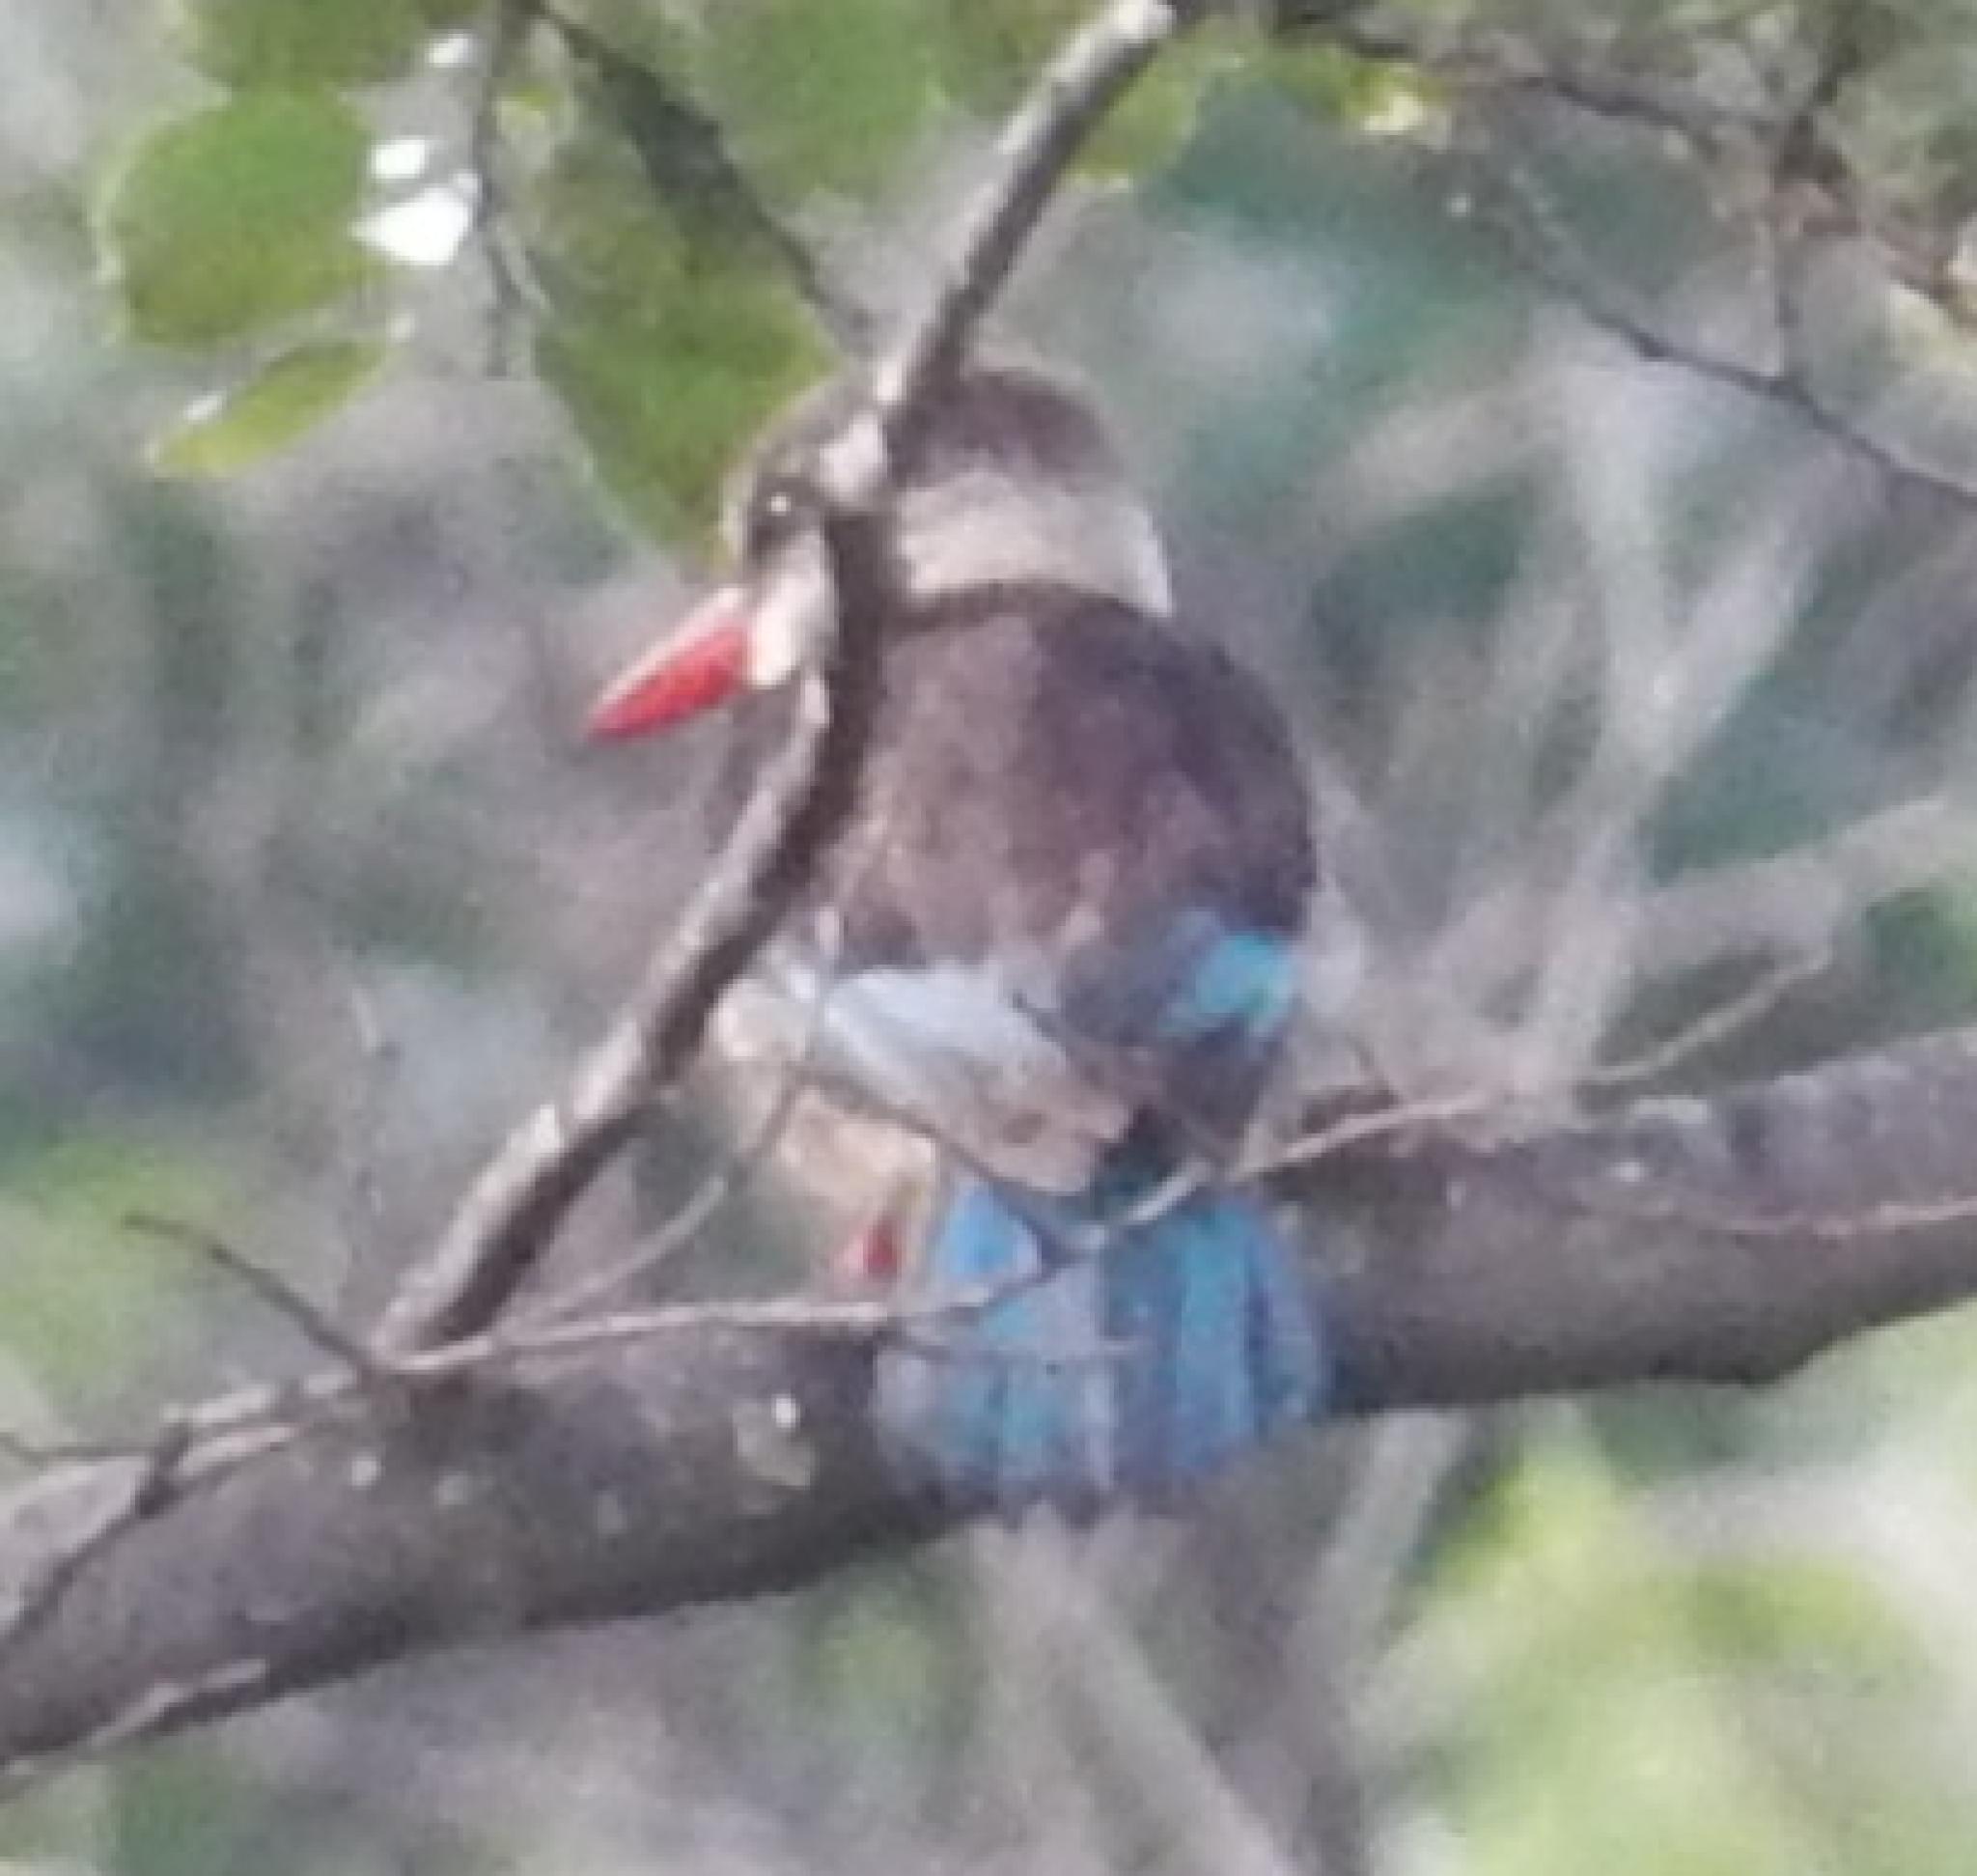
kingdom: Animalia
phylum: Chordata
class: Aves
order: Coraciiformes
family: Alcedinidae
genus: Halcyon
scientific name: Halcyon albiventris
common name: Brown-hooded kingfisher
